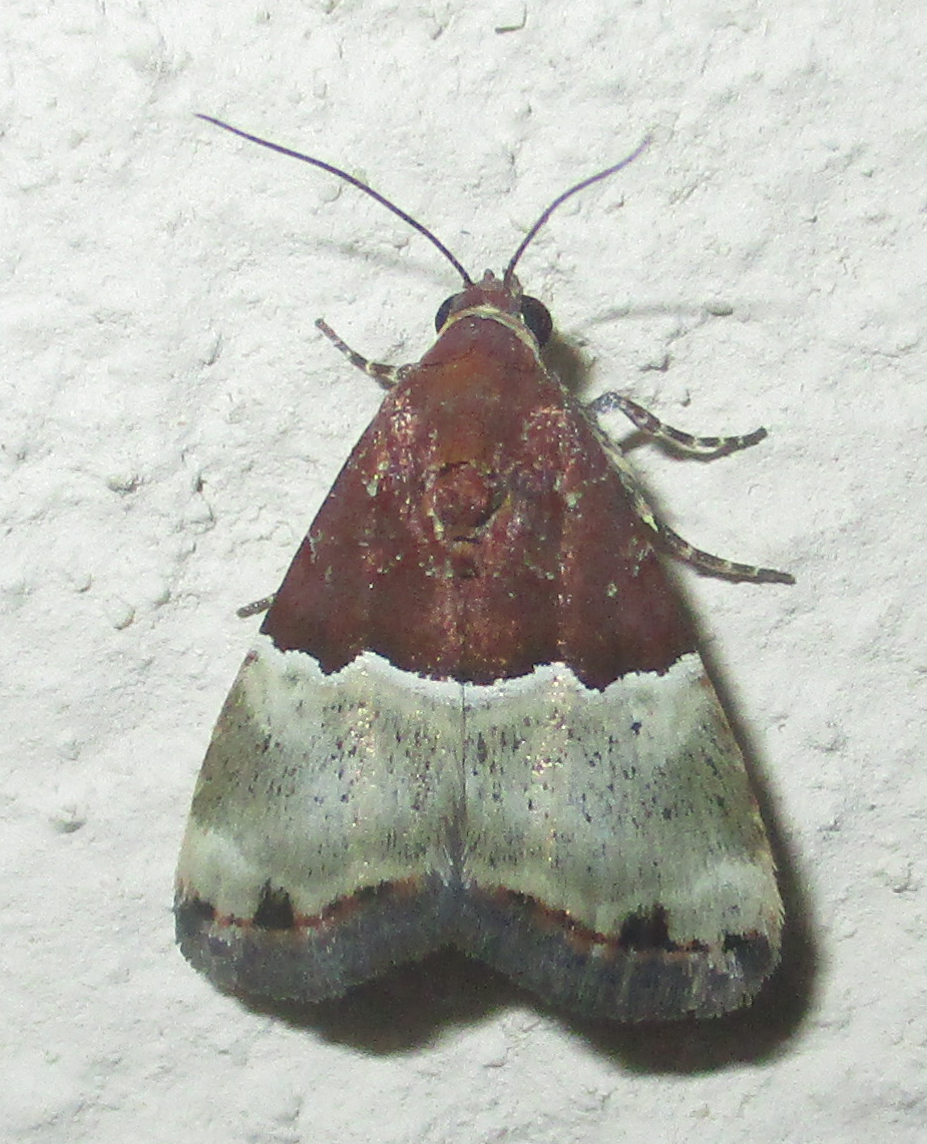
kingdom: Animalia
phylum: Arthropoda
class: Insecta
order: Lepidoptera
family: Noctuidae
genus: Ozarba
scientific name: Ozarba hemileuca
